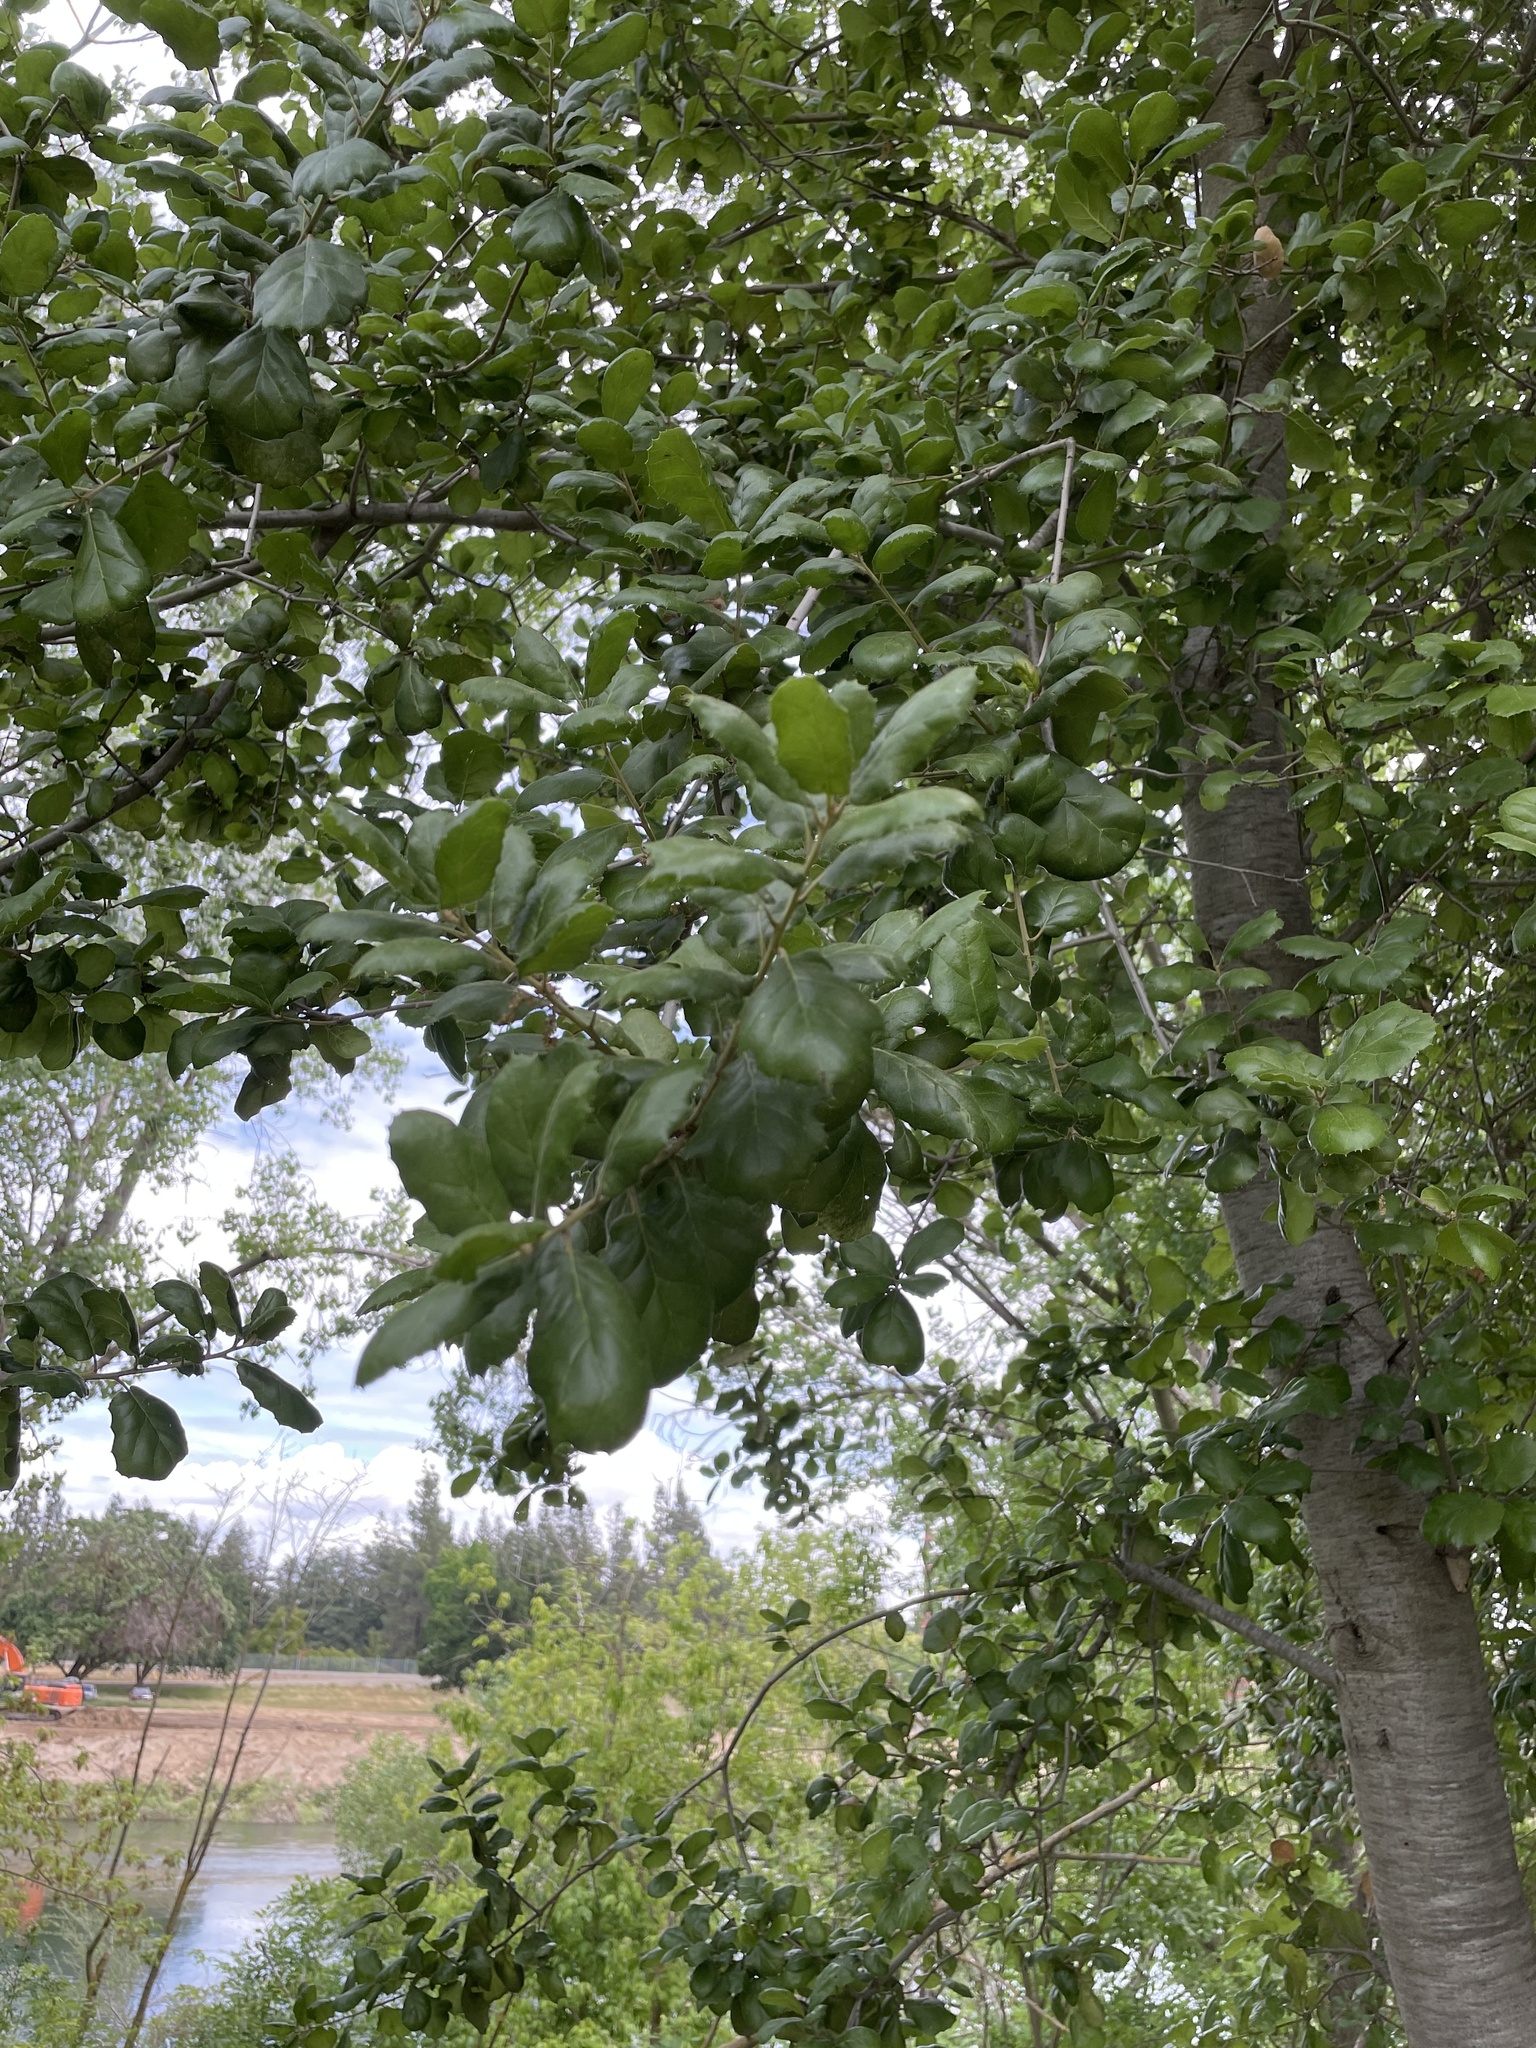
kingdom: Plantae
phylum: Tracheophyta
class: Magnoliopsida
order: Fagales
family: Fagaceae
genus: Quercus
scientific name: Quercus agrifolia
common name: California live oak
